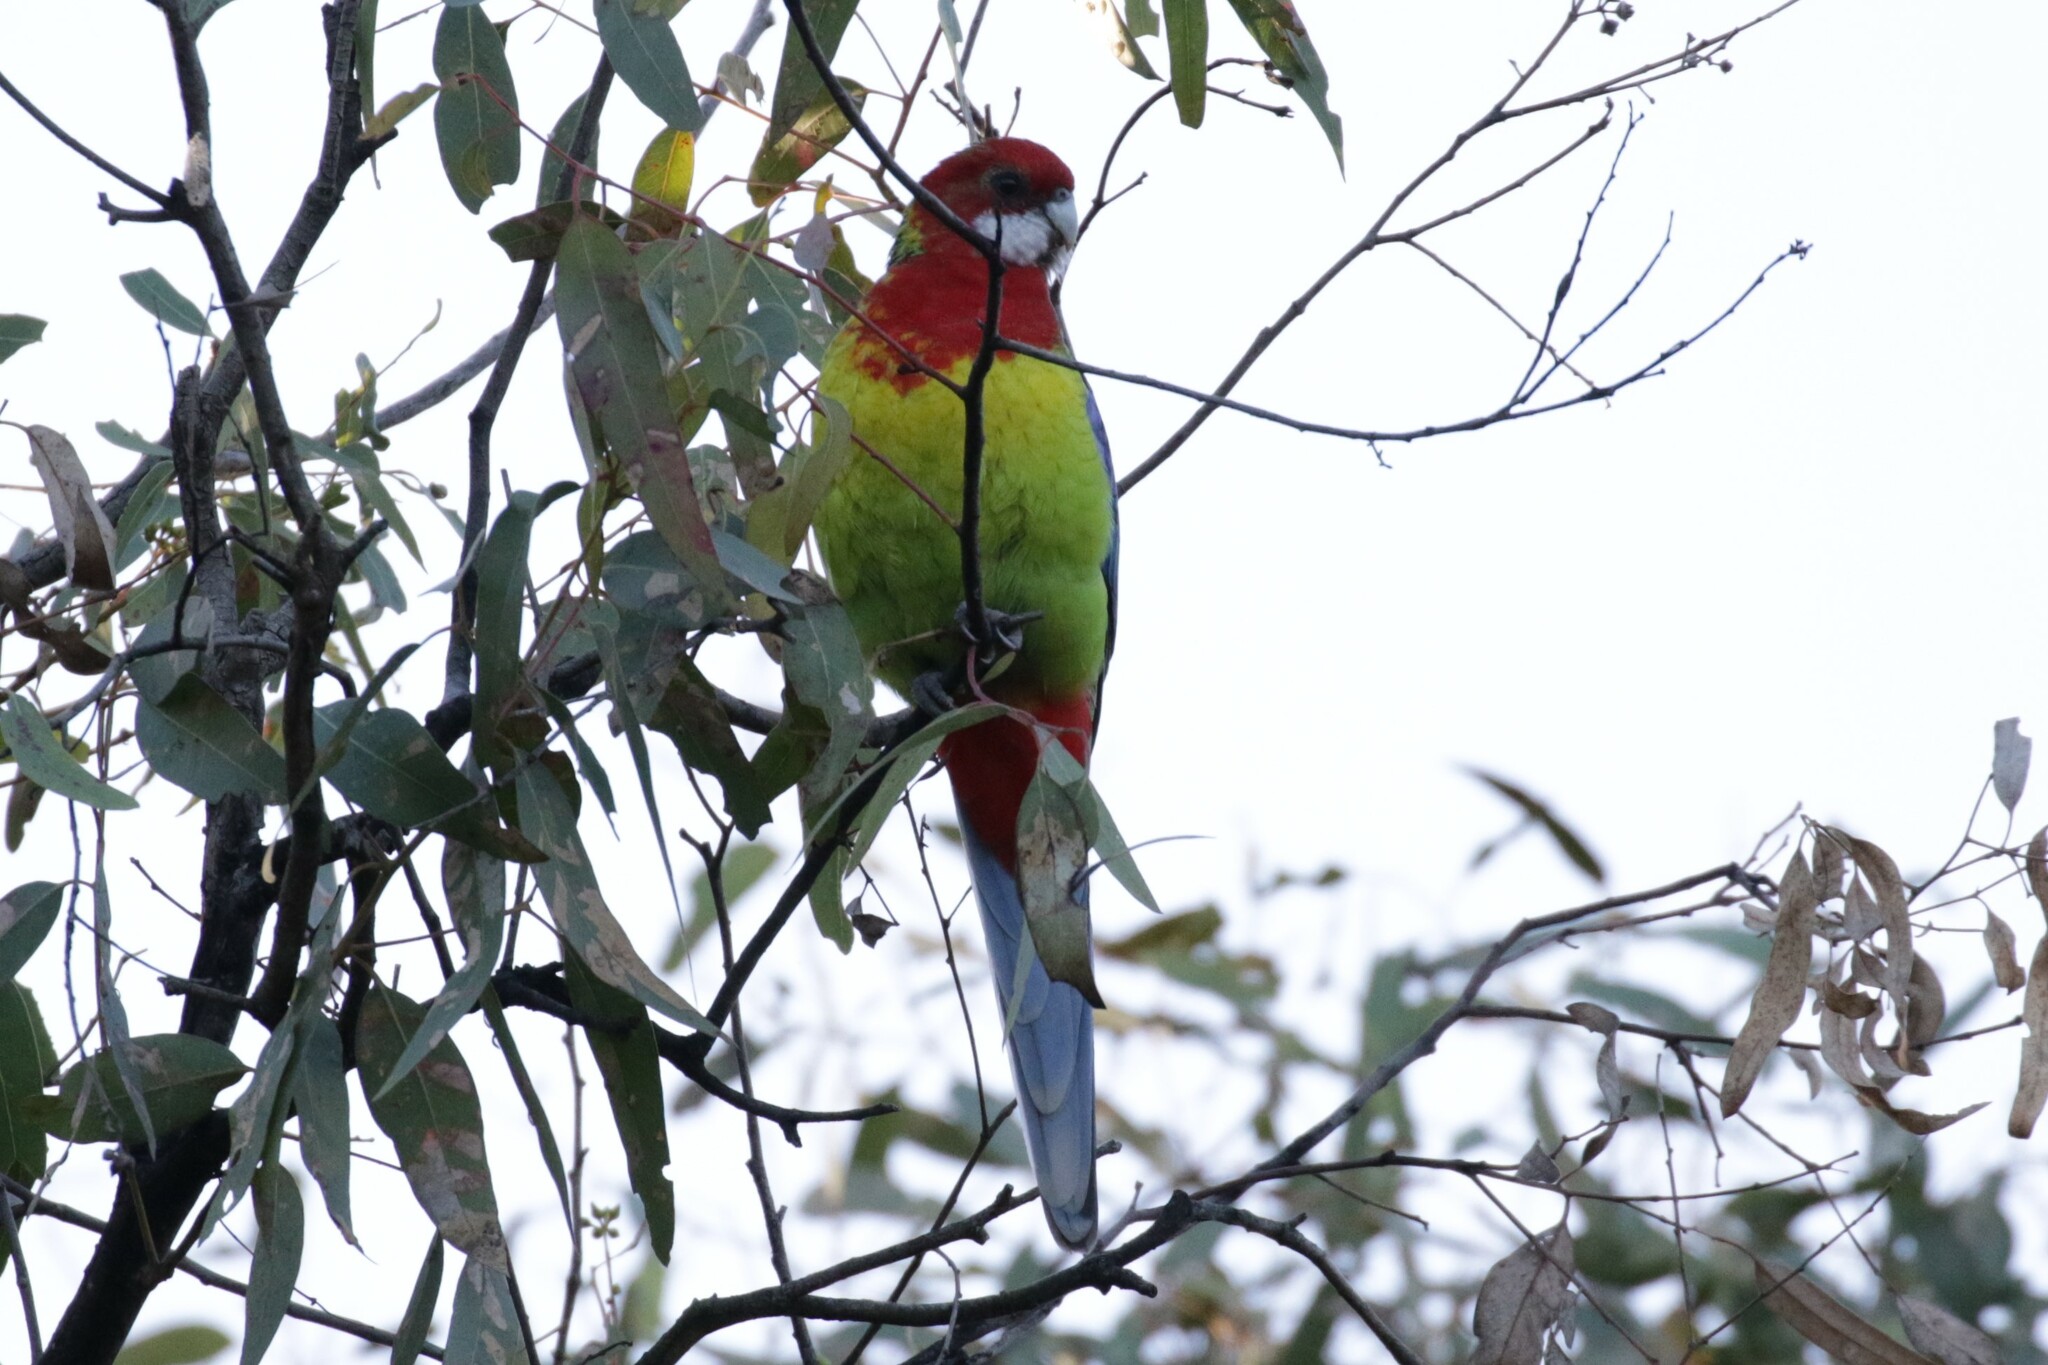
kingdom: Animalia
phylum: Chordata
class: Aves
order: Psittaciformes
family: Psittacidae
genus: Platycercus
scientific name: Platycercus eximius
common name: Eastern rosella
